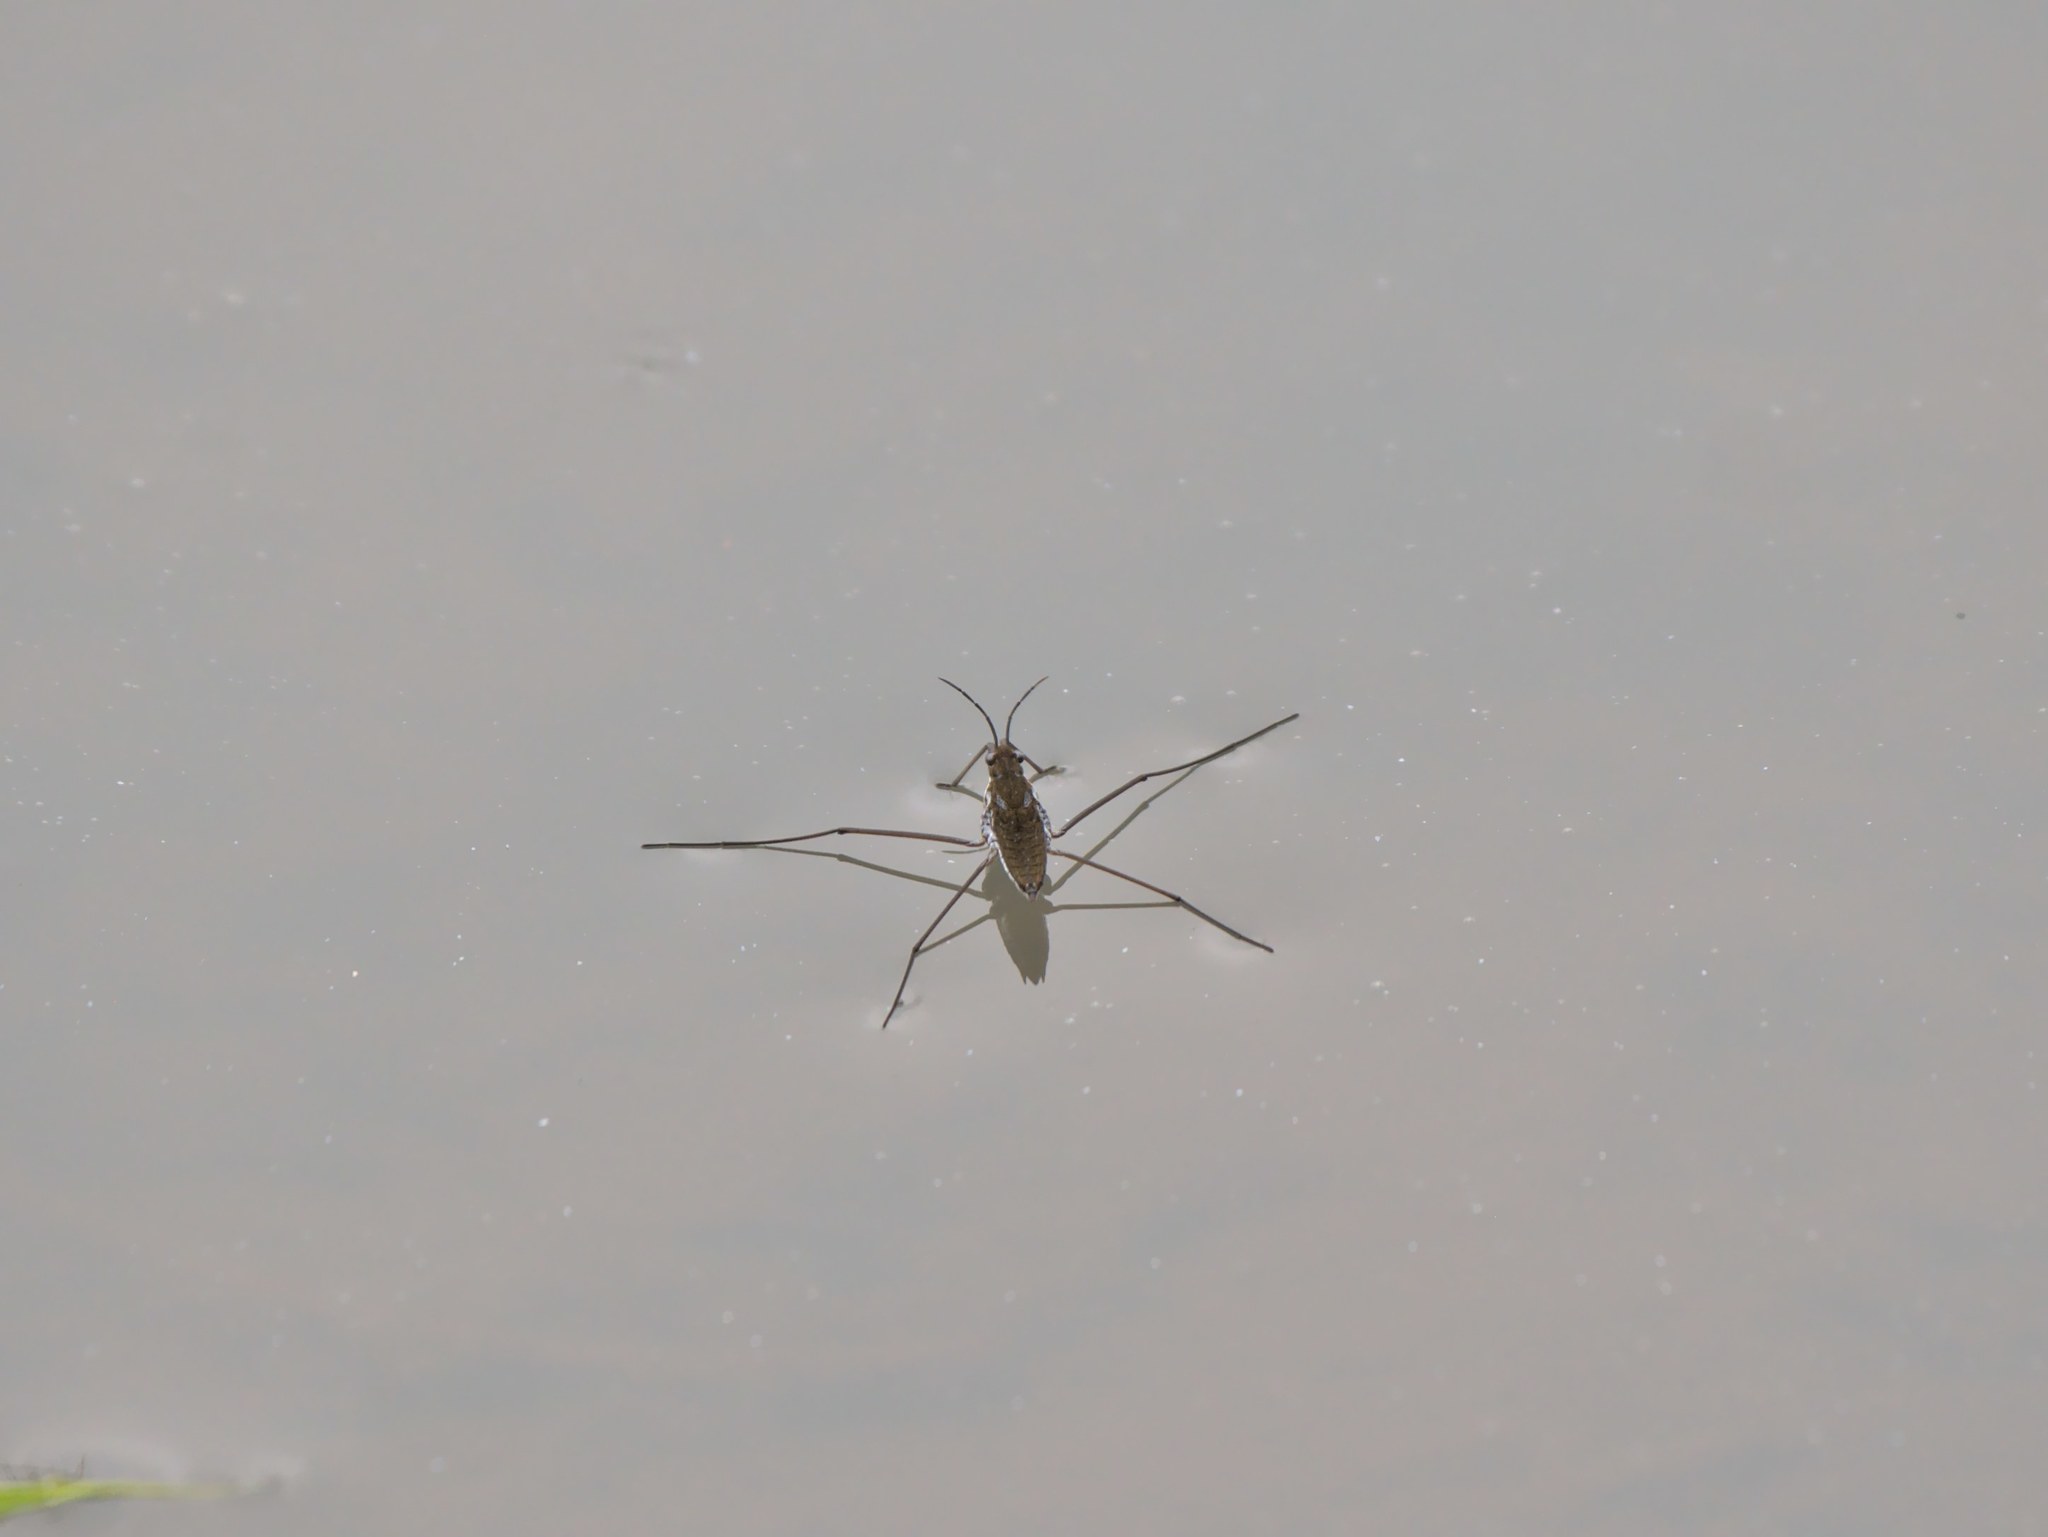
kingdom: Animalia
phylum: Arthropoda
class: Insecta
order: Hemiptera
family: Gerridae
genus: Aquarius
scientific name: Aquarius remigis
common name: Common water strider
